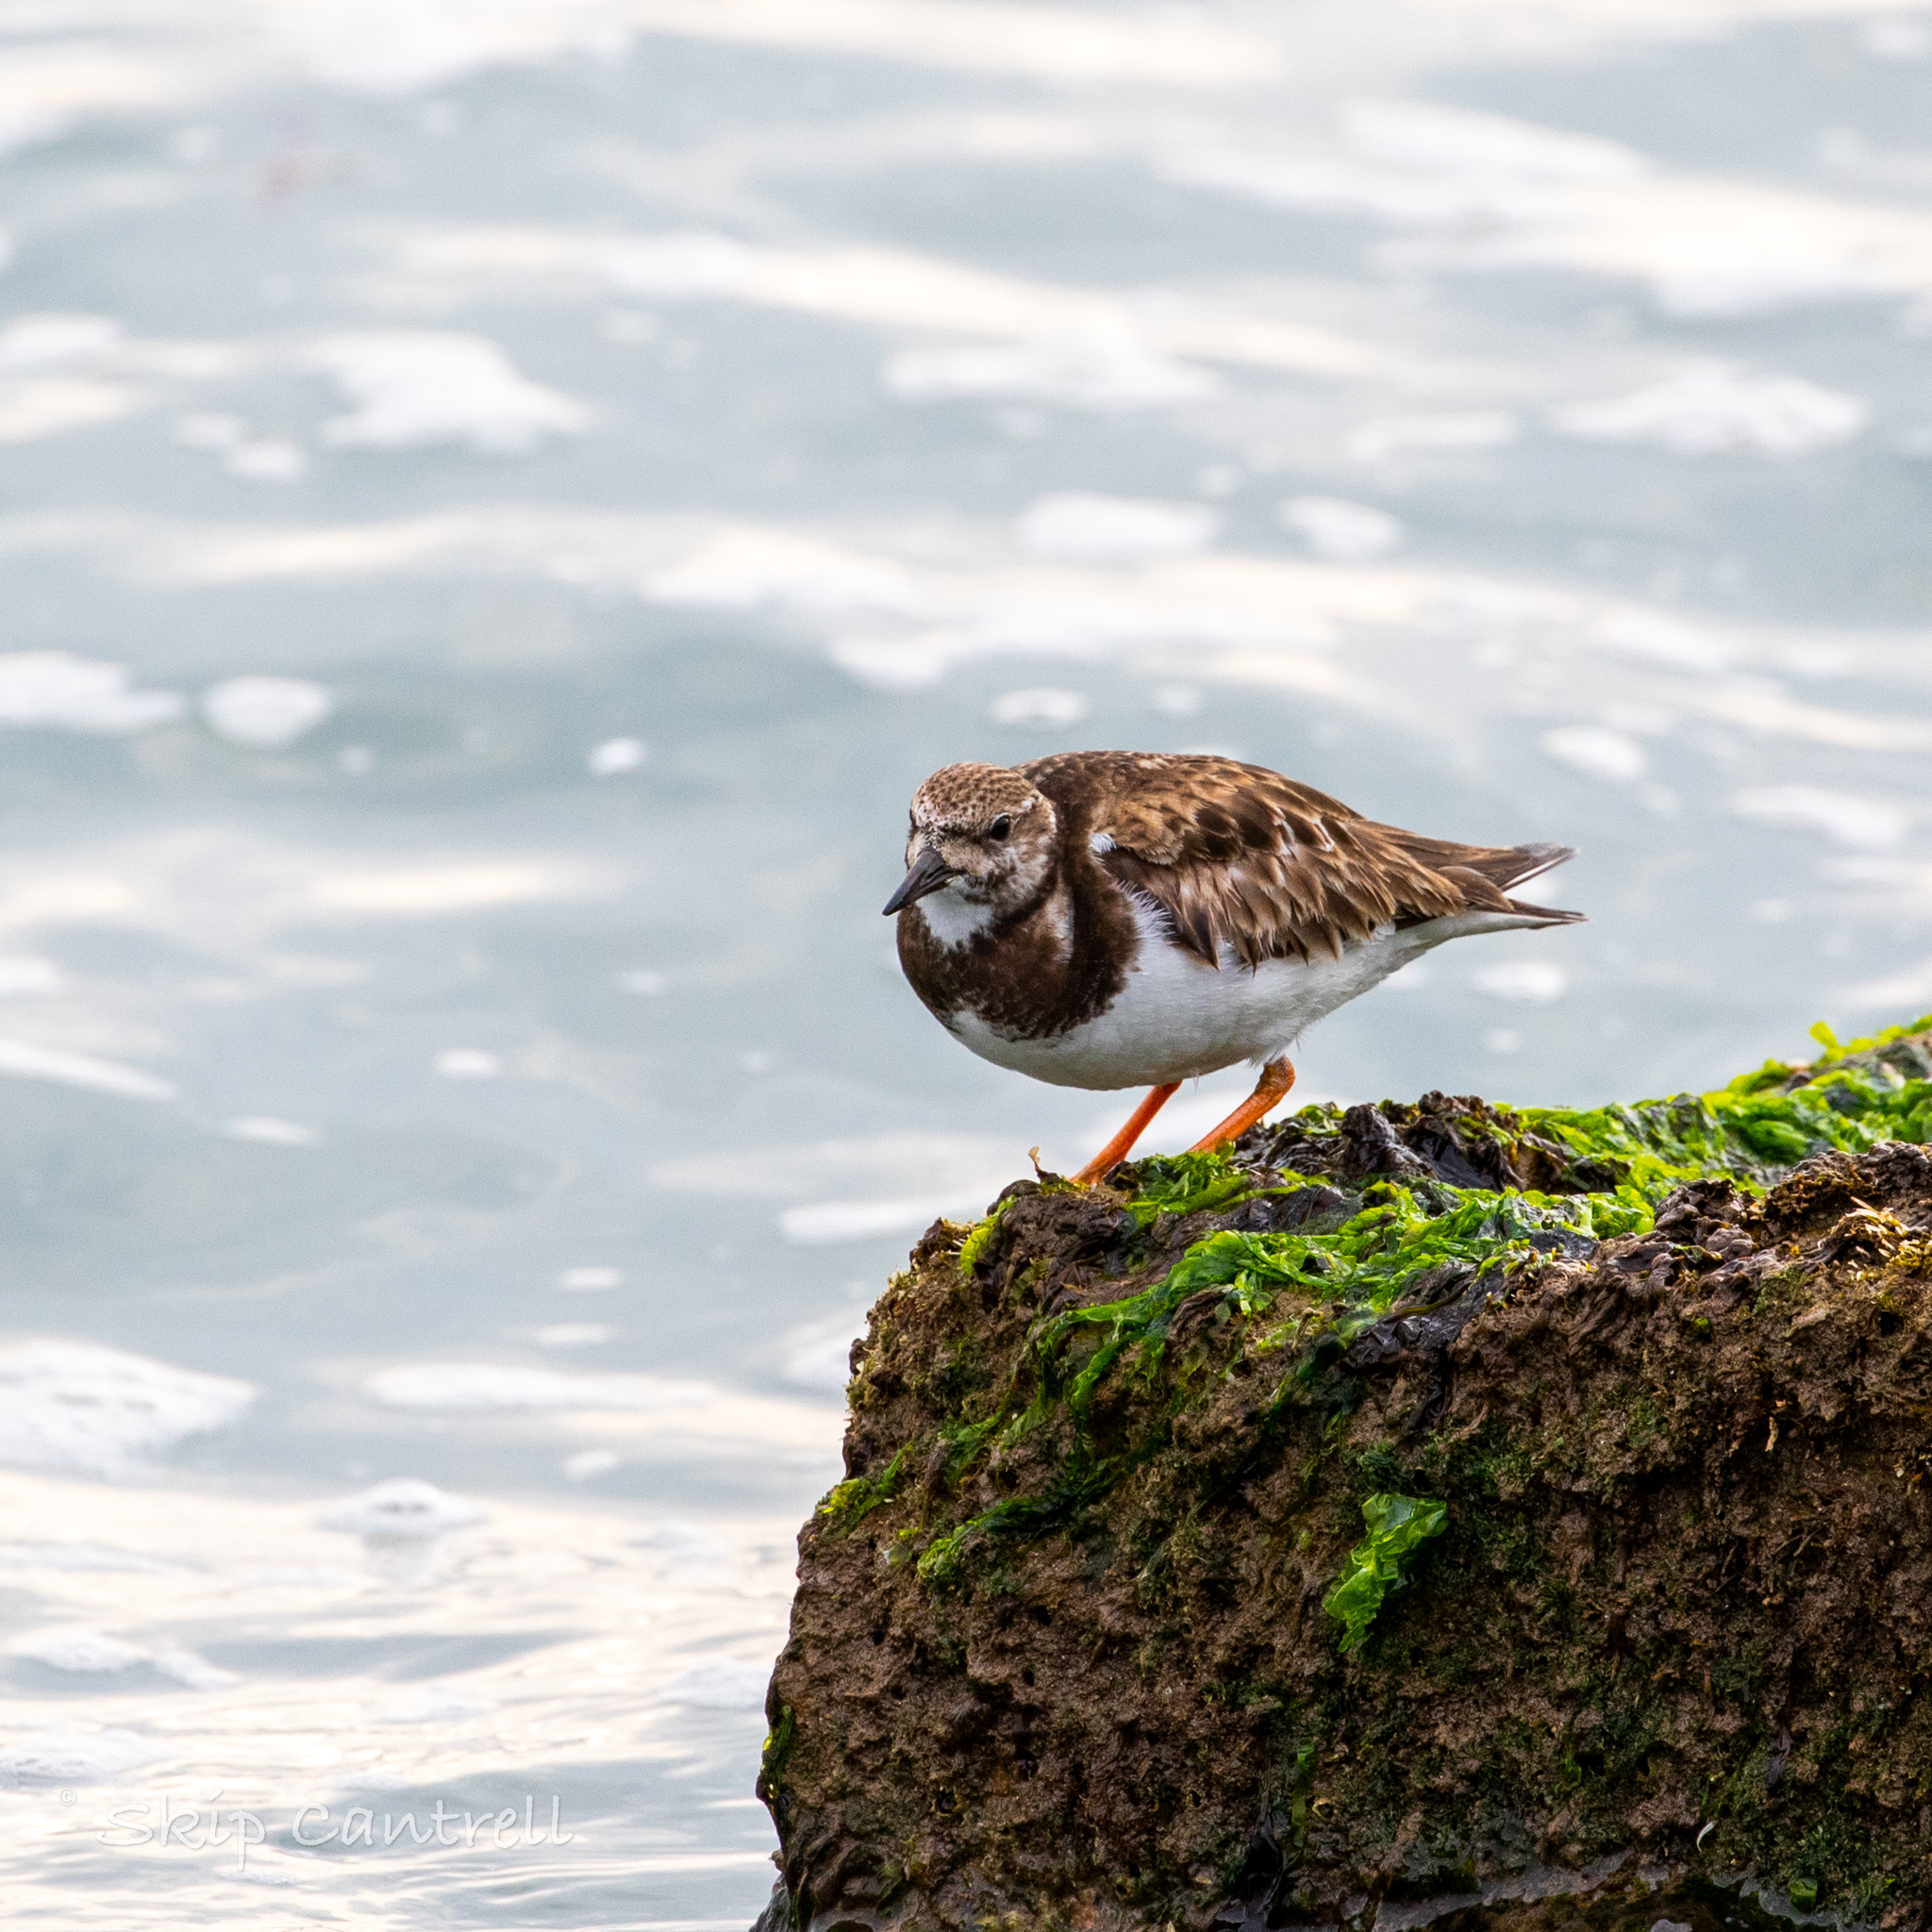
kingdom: Animalia
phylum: Chordata
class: Aves
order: Charadriiformes
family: Scolopacidae
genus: Arenaria
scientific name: Arenaria interpres
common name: Ruddy turnstone
